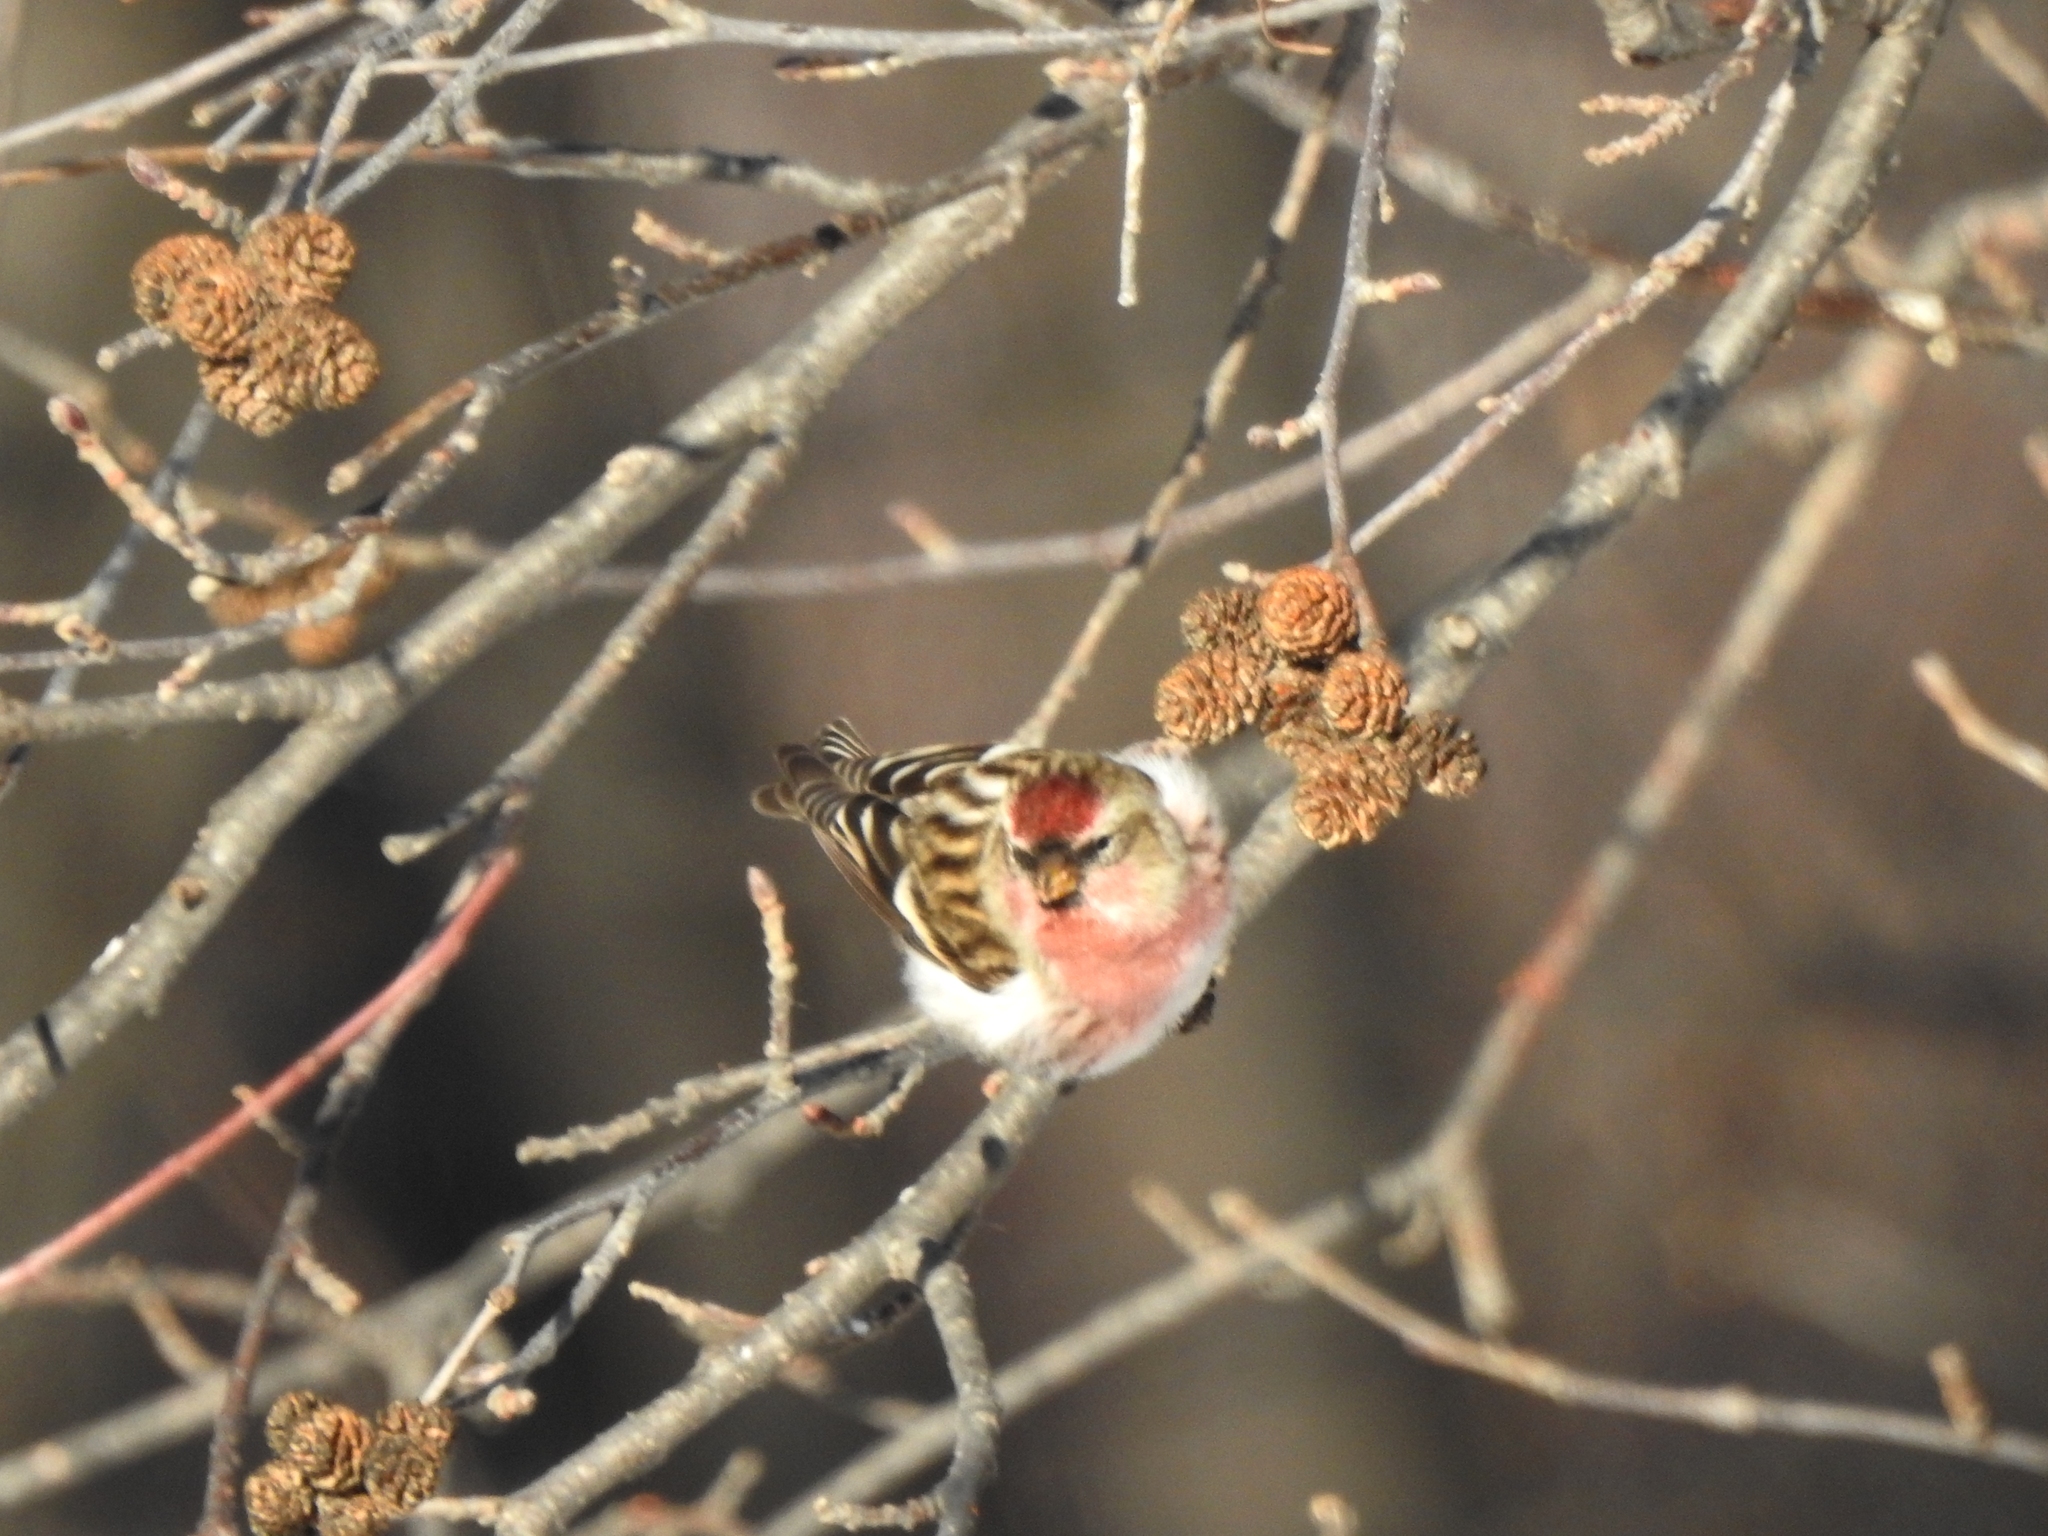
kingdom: Animalia
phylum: Chordata
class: Aves
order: Passeriformes
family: Fringillidae
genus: Acanthis
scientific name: Acanthis flammea
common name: Common redpoll
